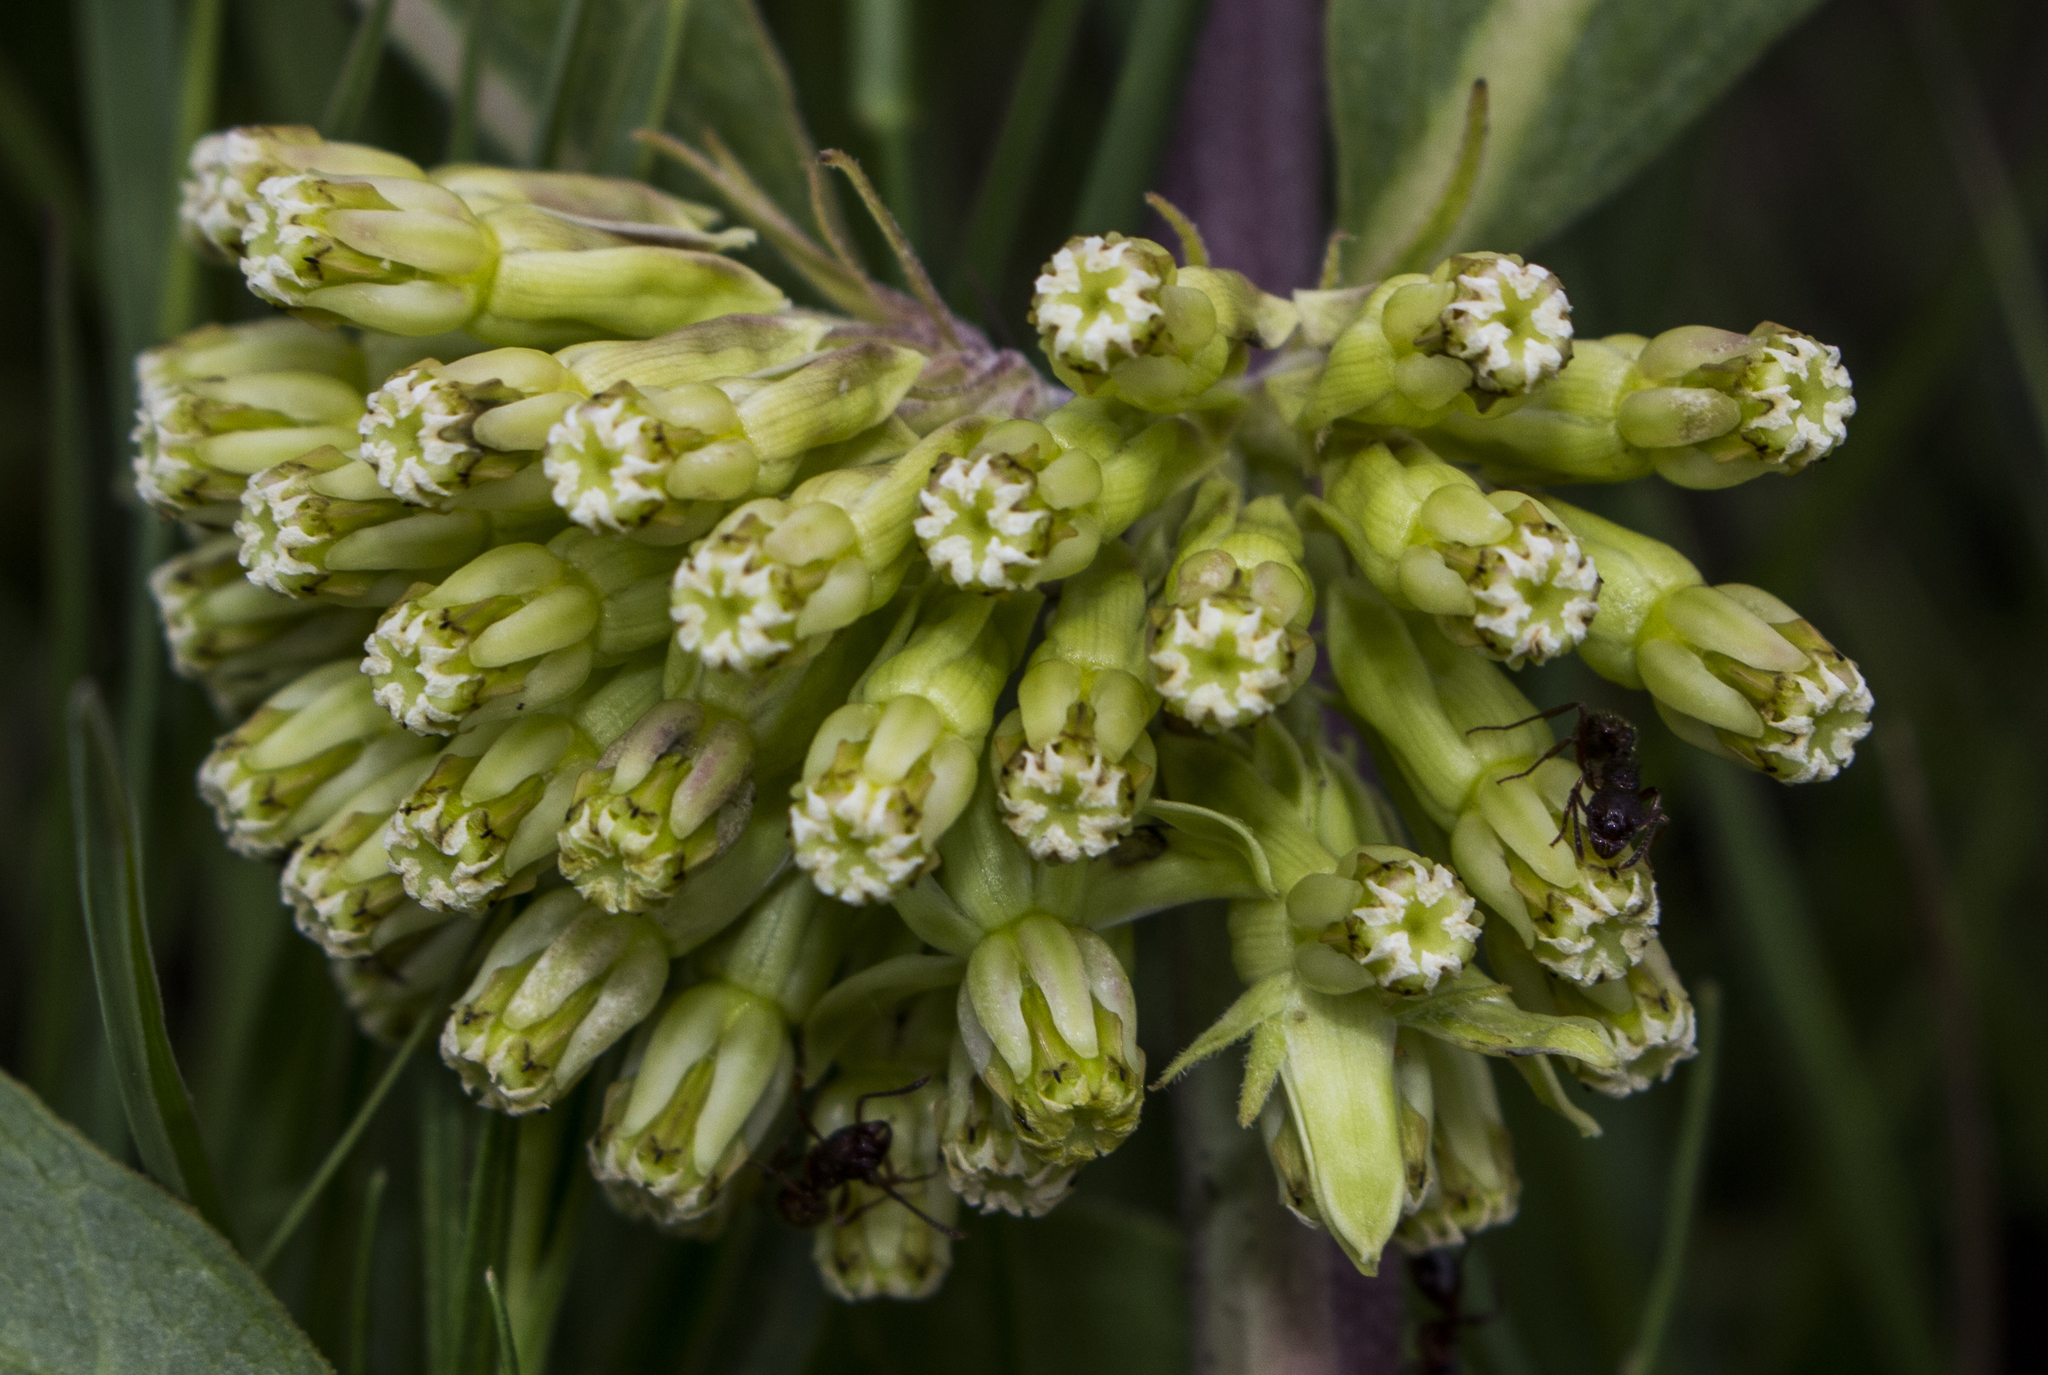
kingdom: Plantae
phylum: Tracheophyta
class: Magnoliopsida
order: Gentianales
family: Apocynaceae
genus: Asclepias
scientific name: Asclepias viridiflora
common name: Green comet milkweed
